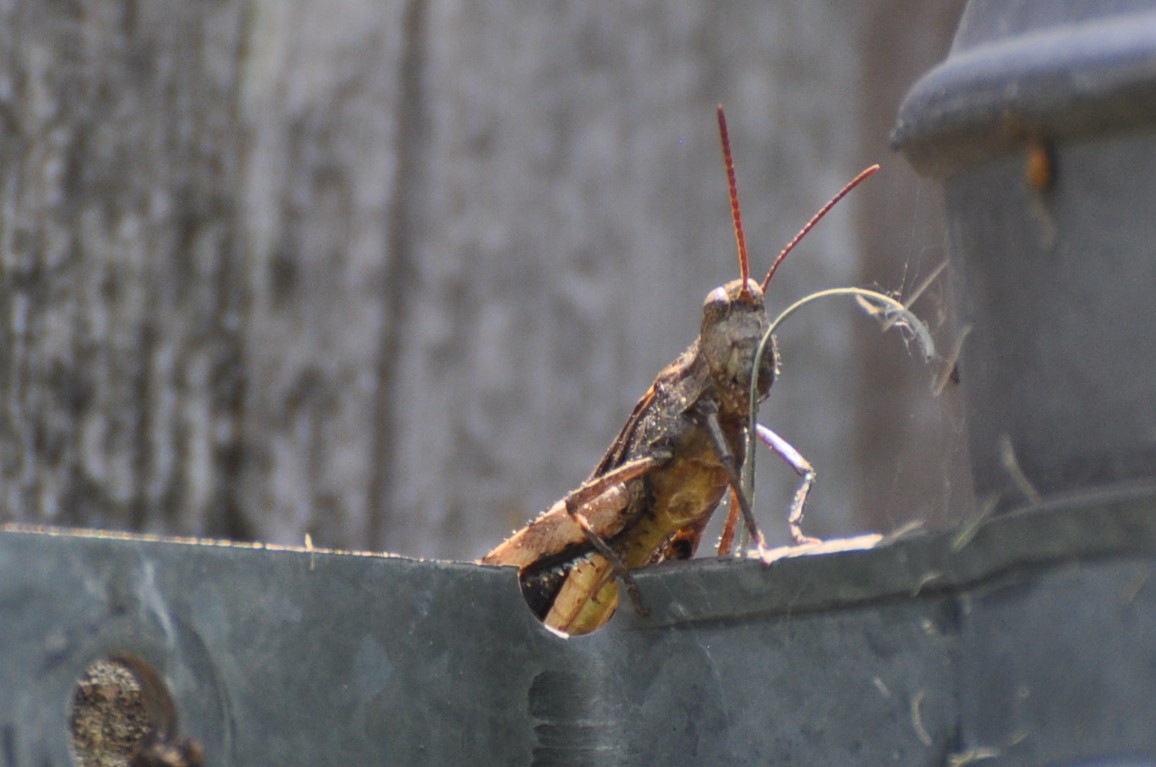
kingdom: Animalia
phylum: Arthropoda
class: Insecta
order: Orthoptera
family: Acrididae
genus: Chortophaga
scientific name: Chortophaga viridifasciata
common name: Green-striped grasshopper
